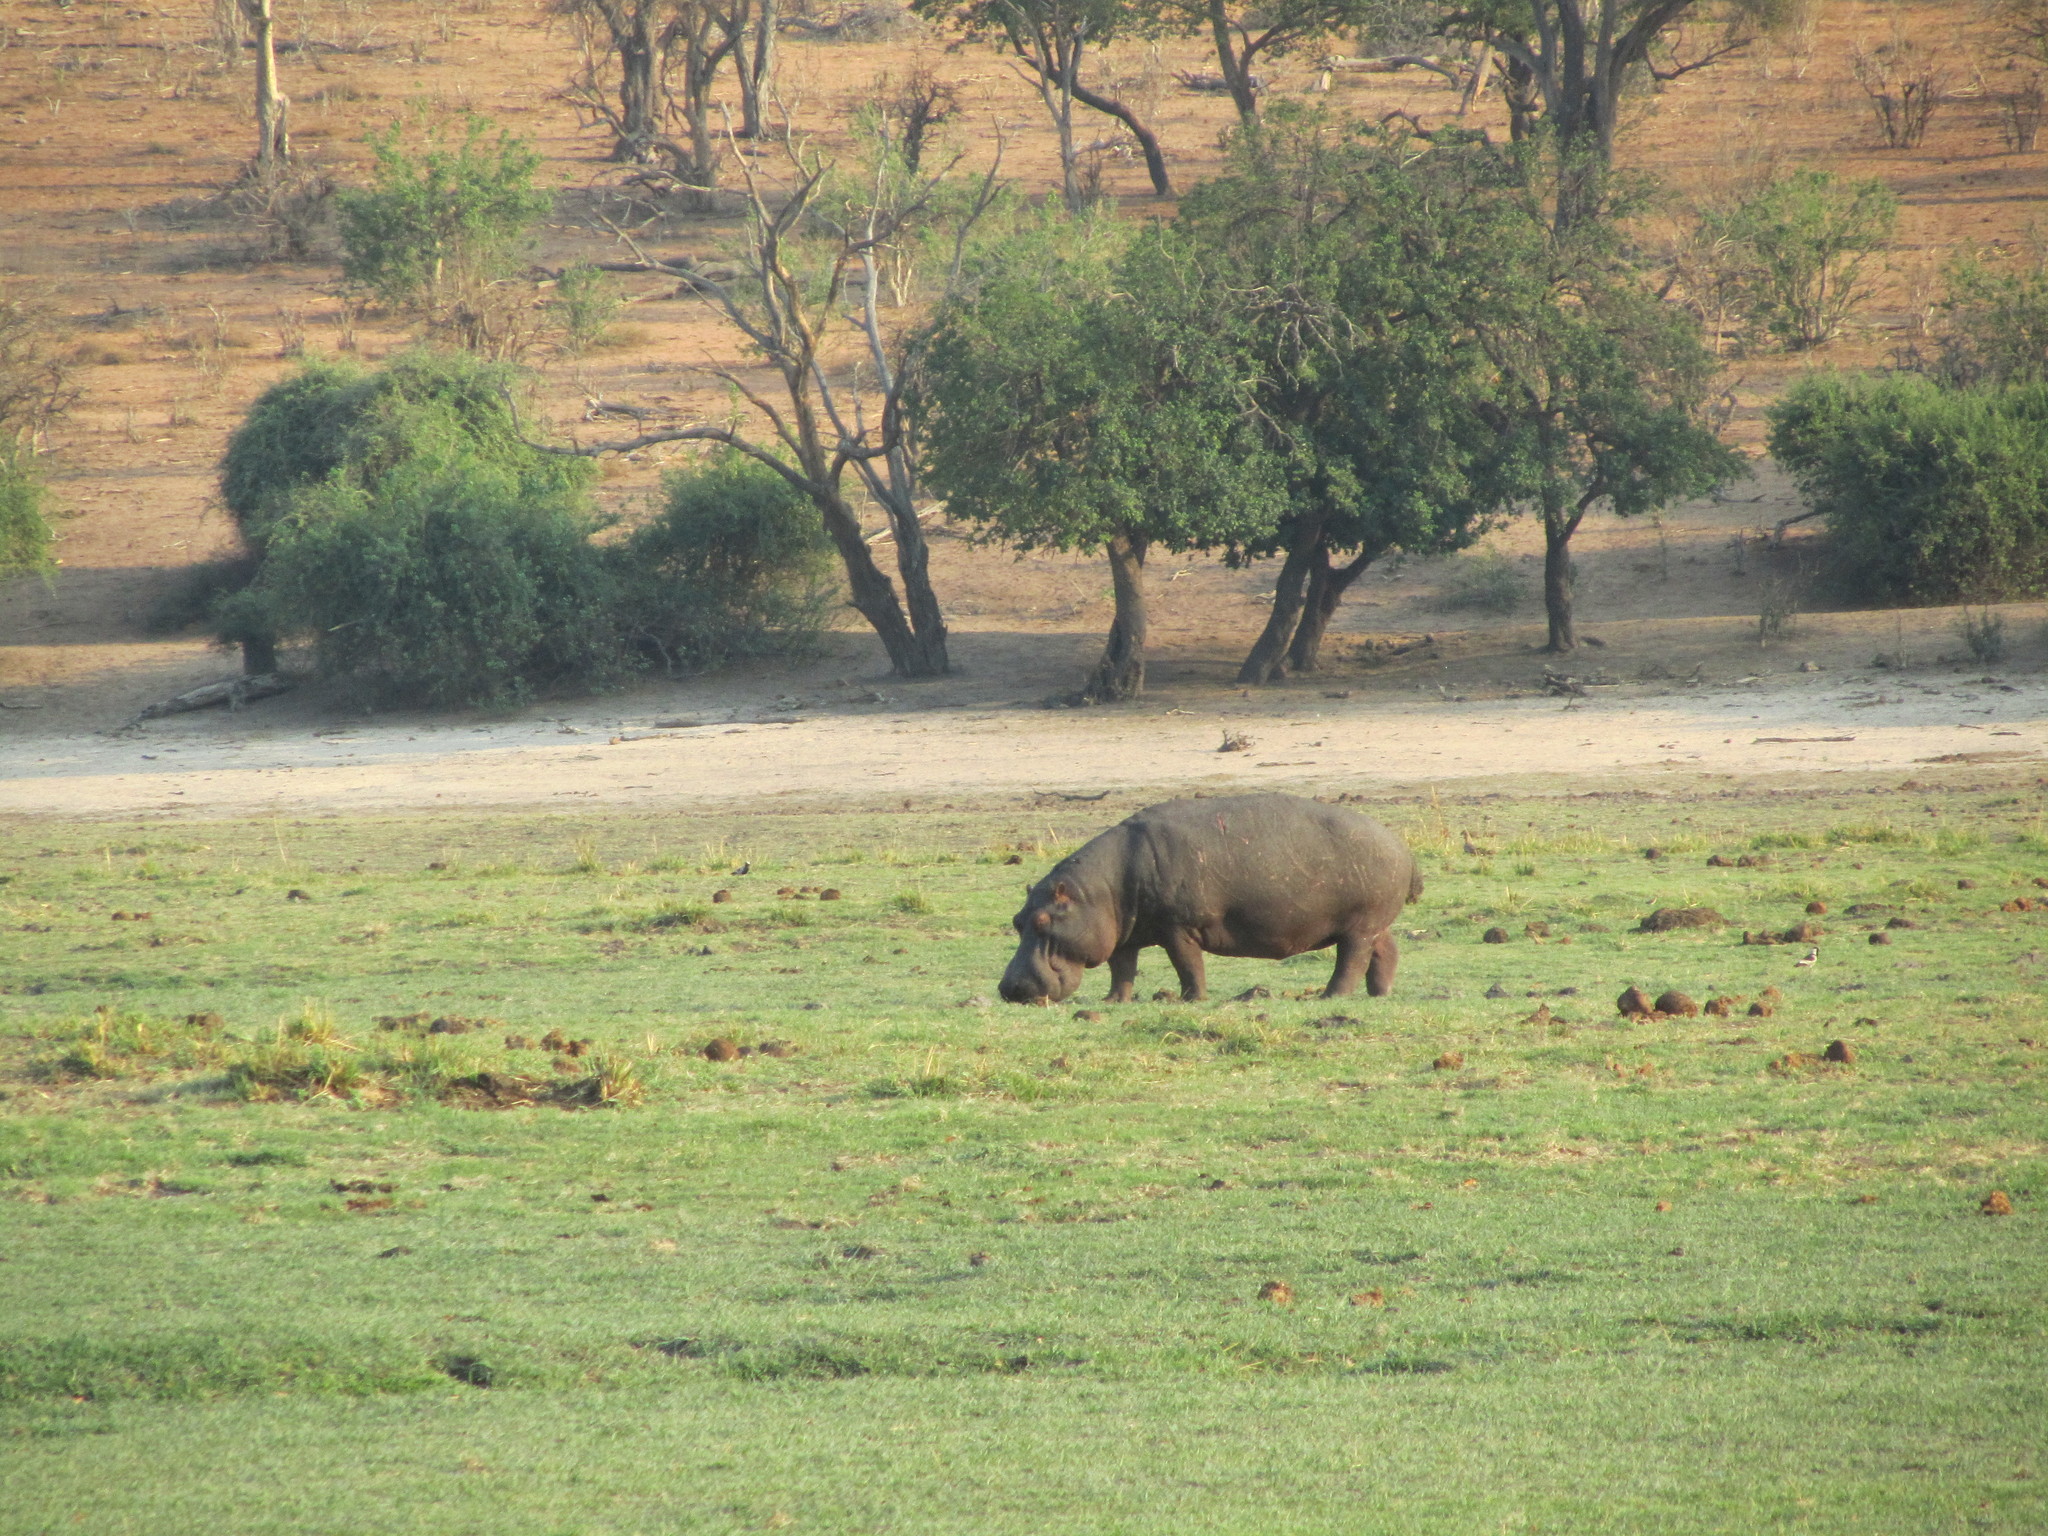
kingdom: Animalia
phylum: Chordata
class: Mammalia
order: Artiodactyla
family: Hippopotamidae
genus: Hippopotamus
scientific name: Hippopotamus amphibius
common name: Common hippopotamus
